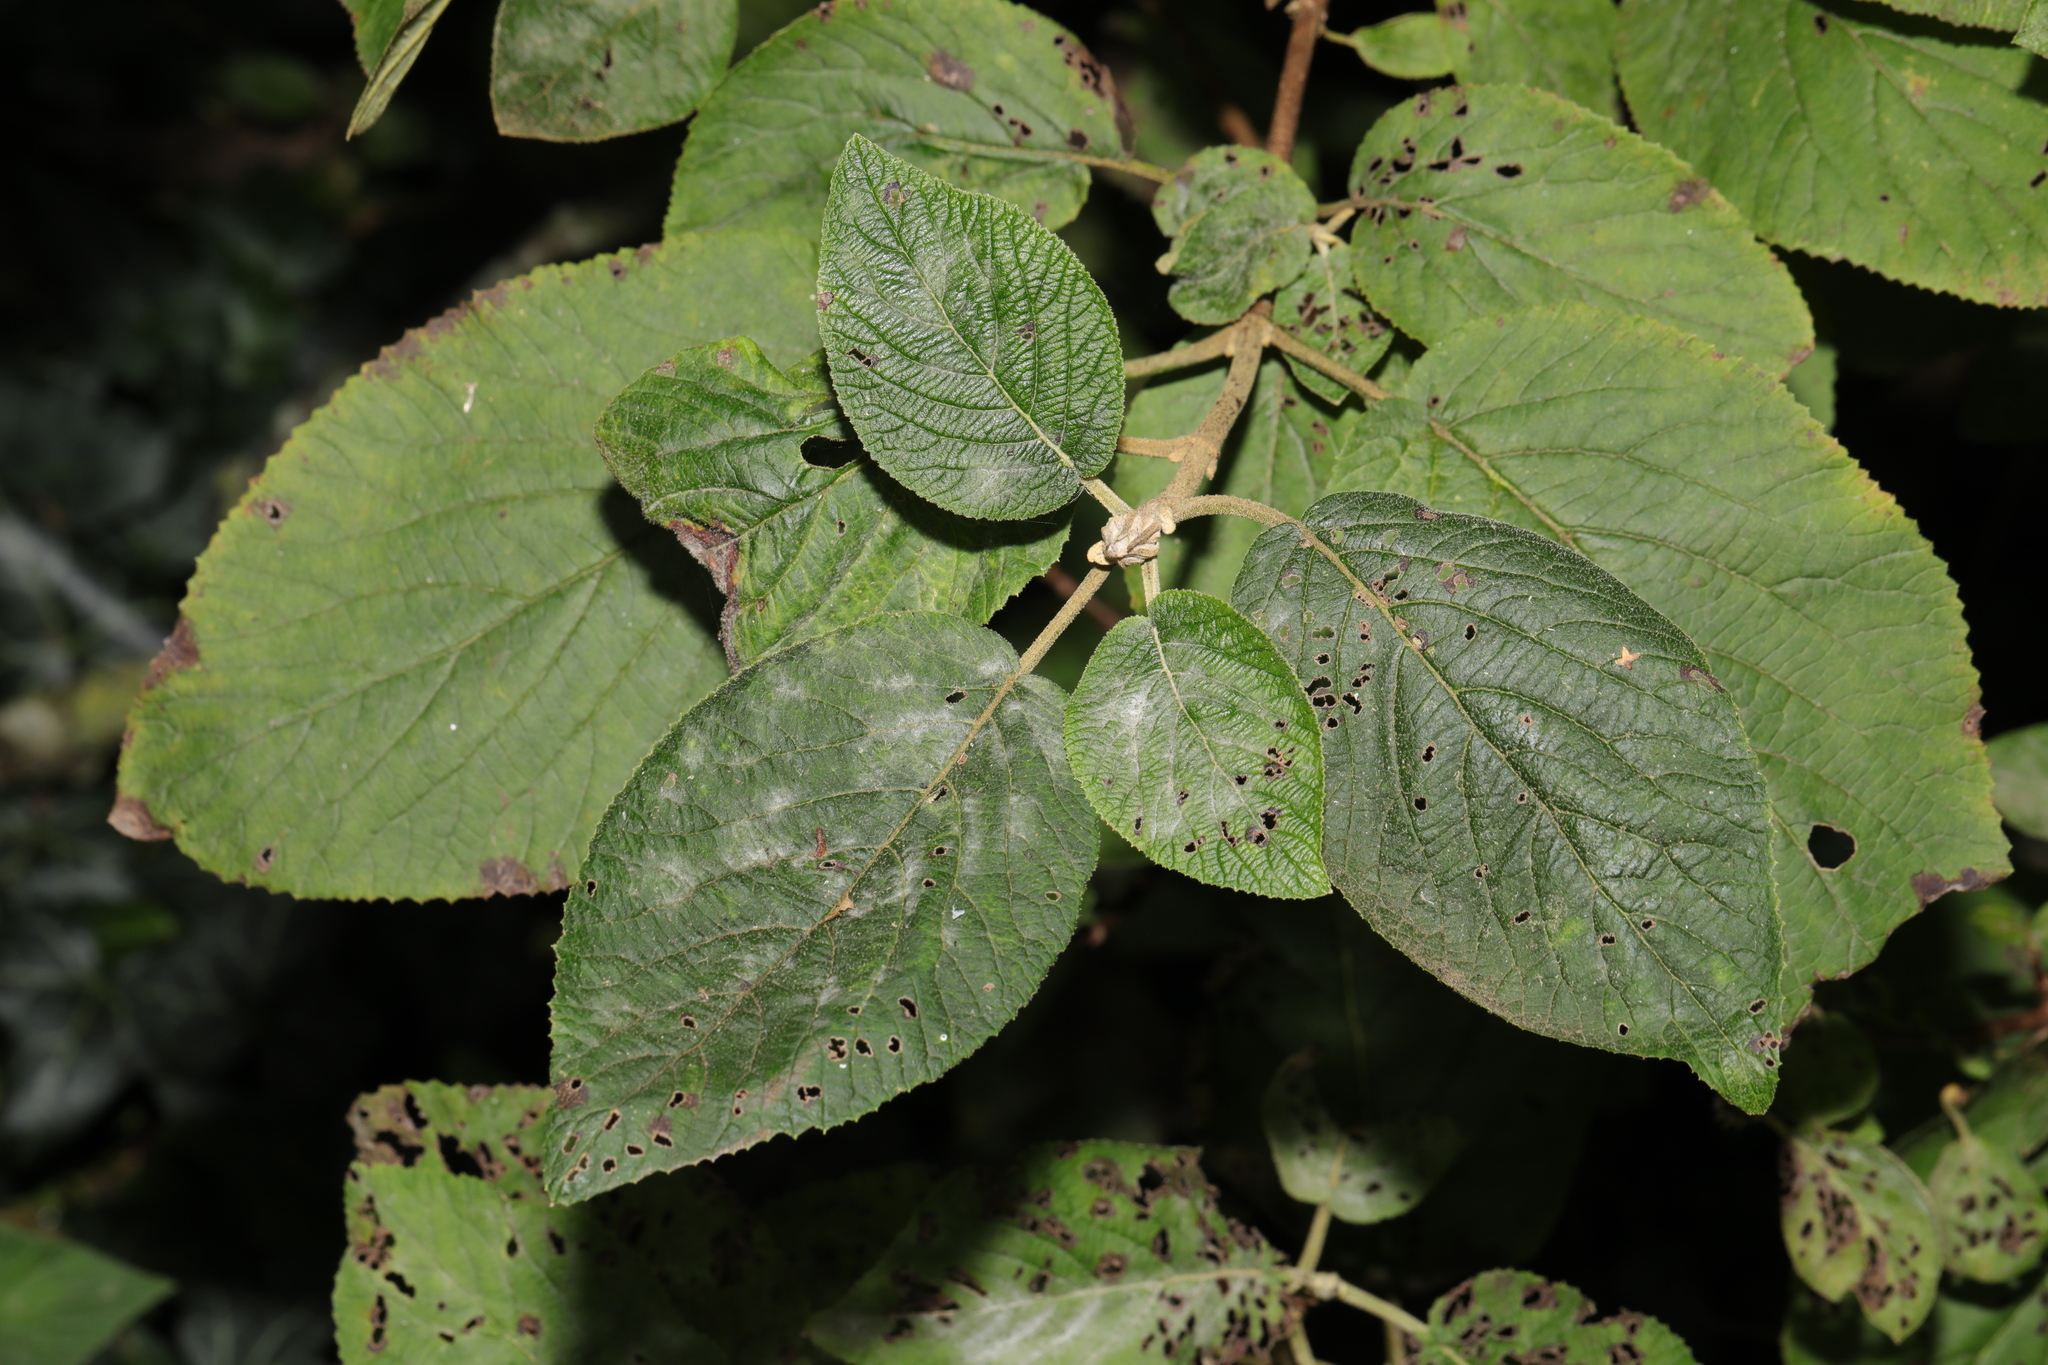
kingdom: Plantae
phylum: Tracheophyta
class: Magnoliopsida
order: Dipsacales
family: Viburnaceae
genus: Viburnum
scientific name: Viburnum lantana
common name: Wayfaring tree
